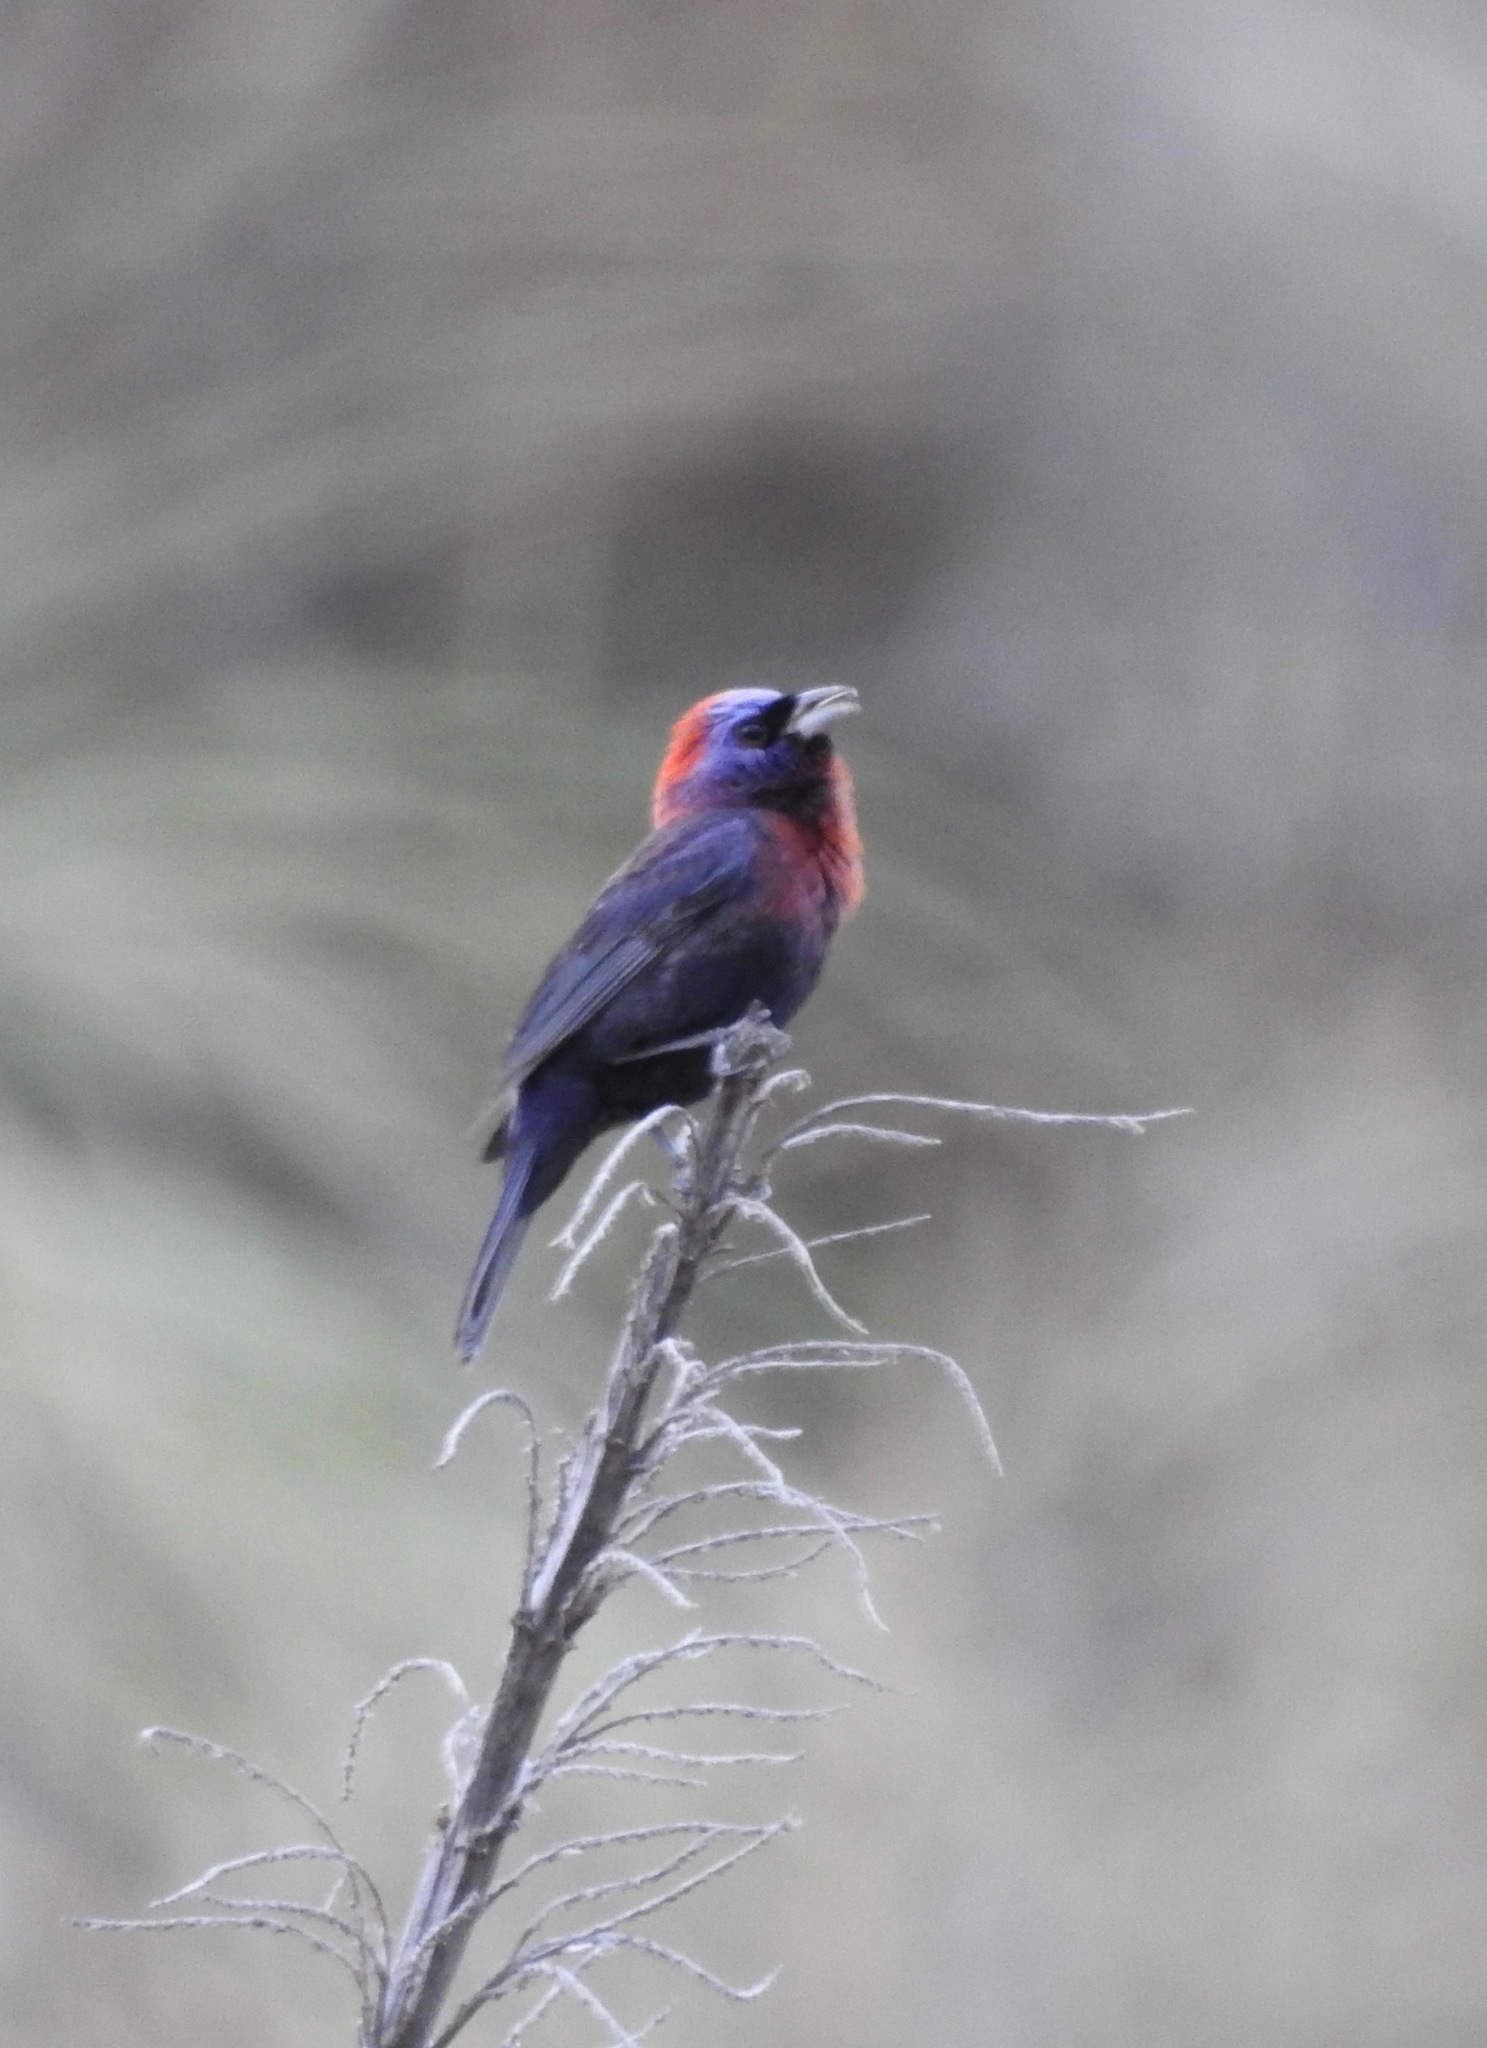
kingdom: Animalia
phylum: Chordata
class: Aves
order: Passeriformes
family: Cardinalidae
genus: Passerina
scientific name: Passerina versicolor
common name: Varied bunting
